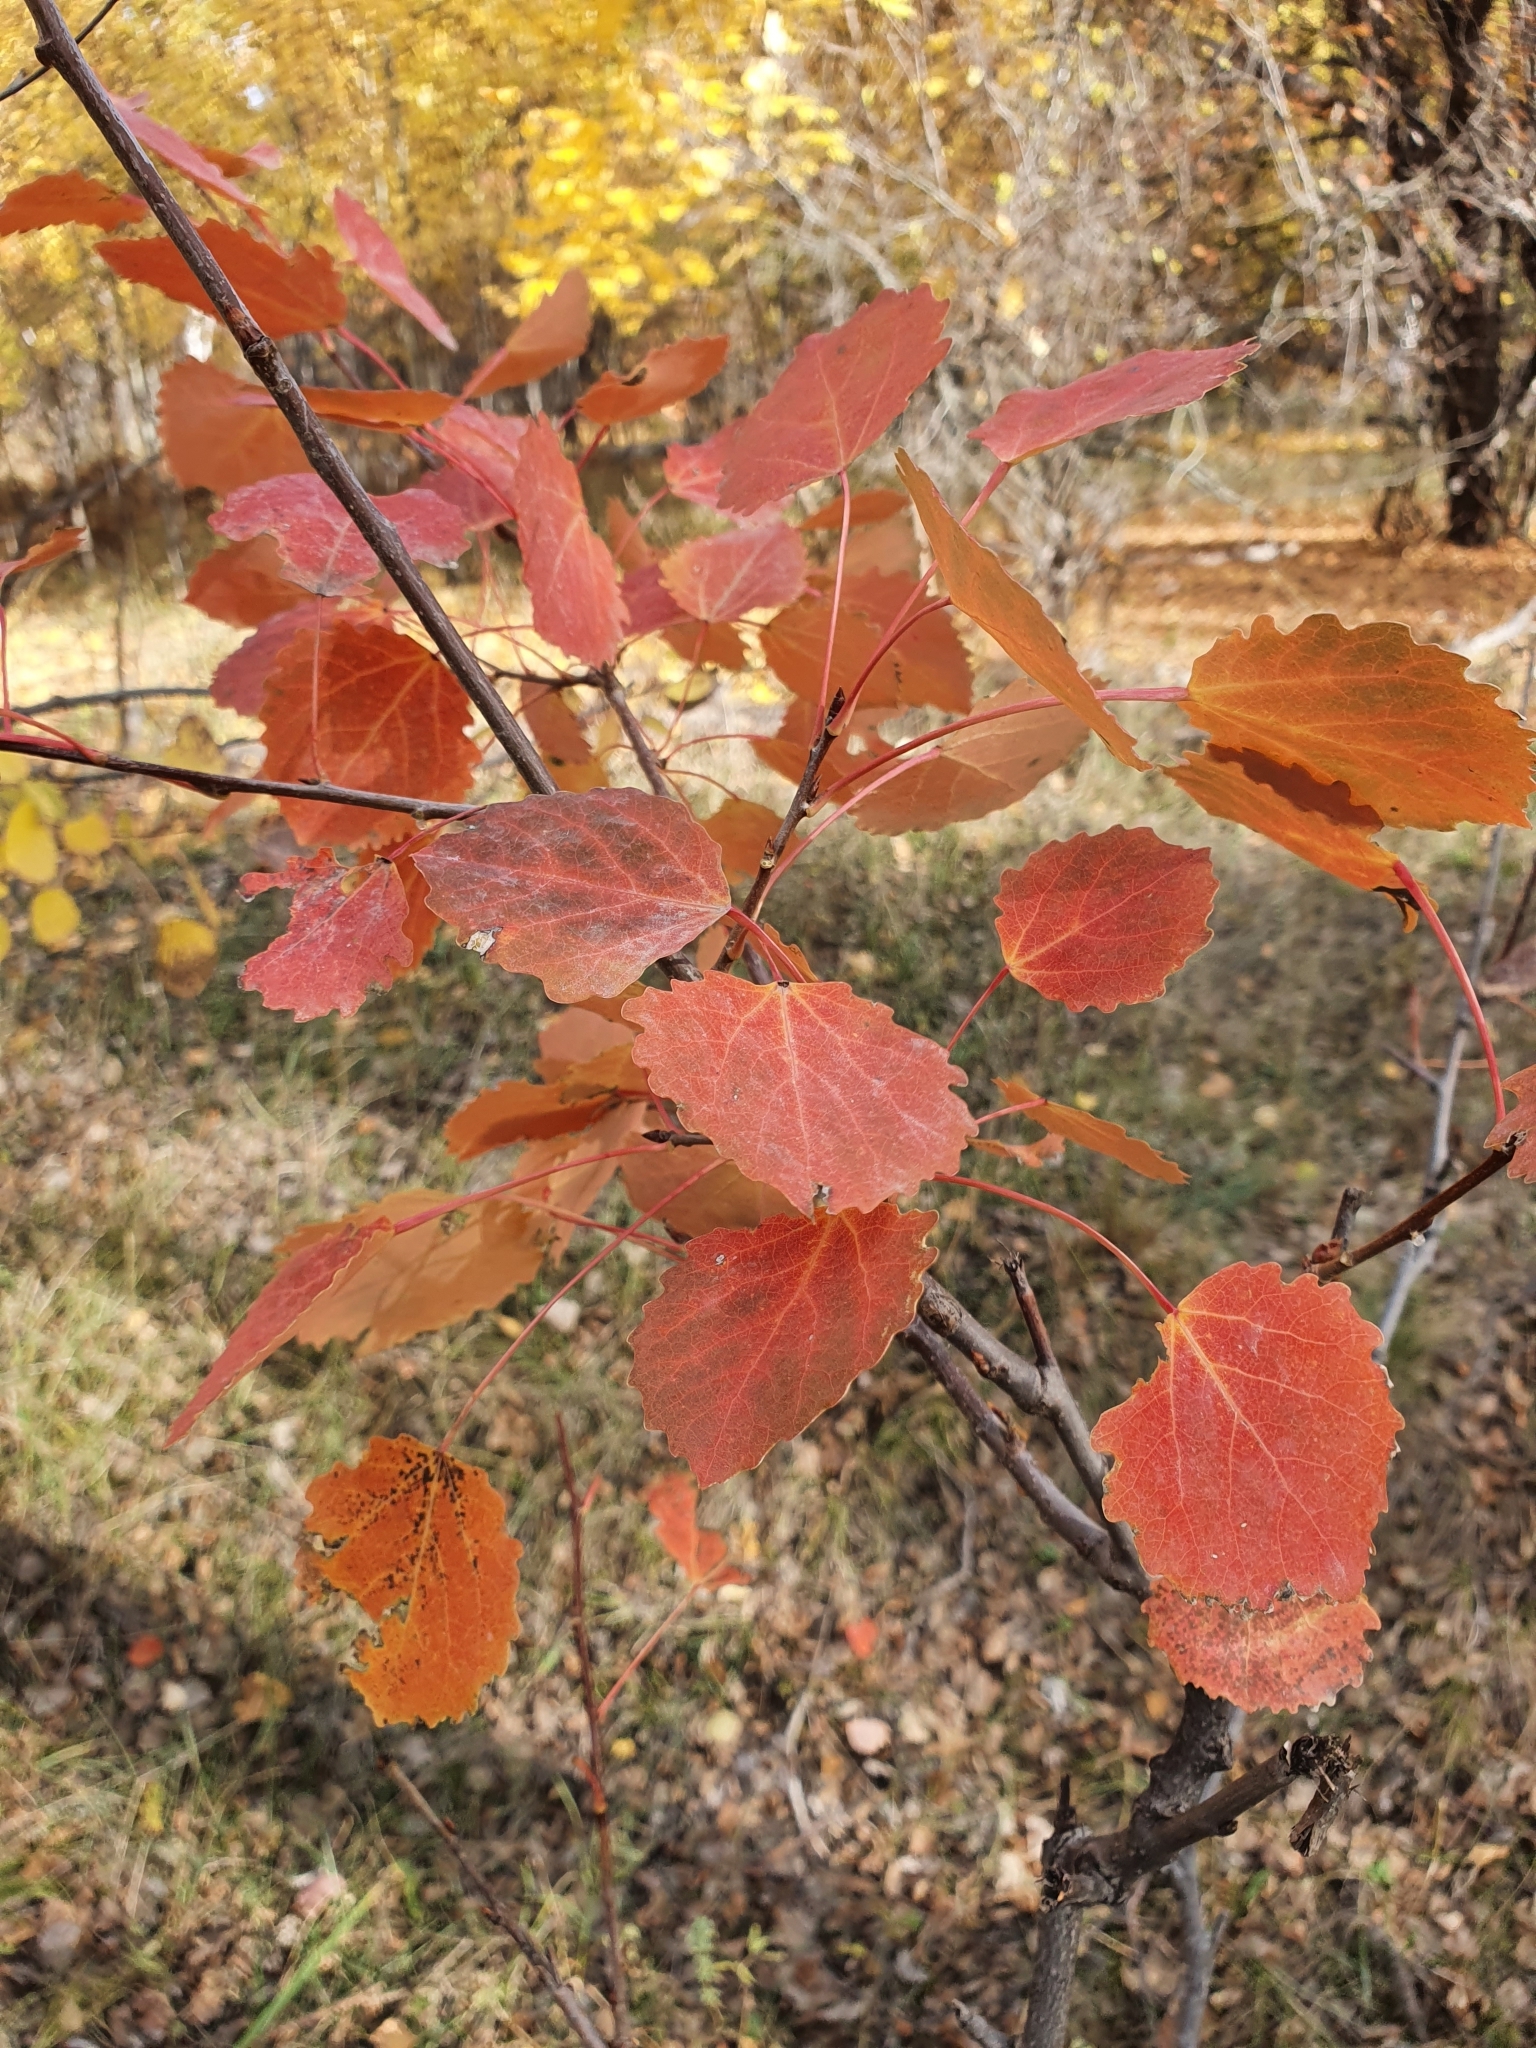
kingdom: Plantae
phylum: Tracheophyta
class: Magnoliopsida
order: Malpighiales
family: Salicaceae
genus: Populus
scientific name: Populus tremula
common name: European aspen
